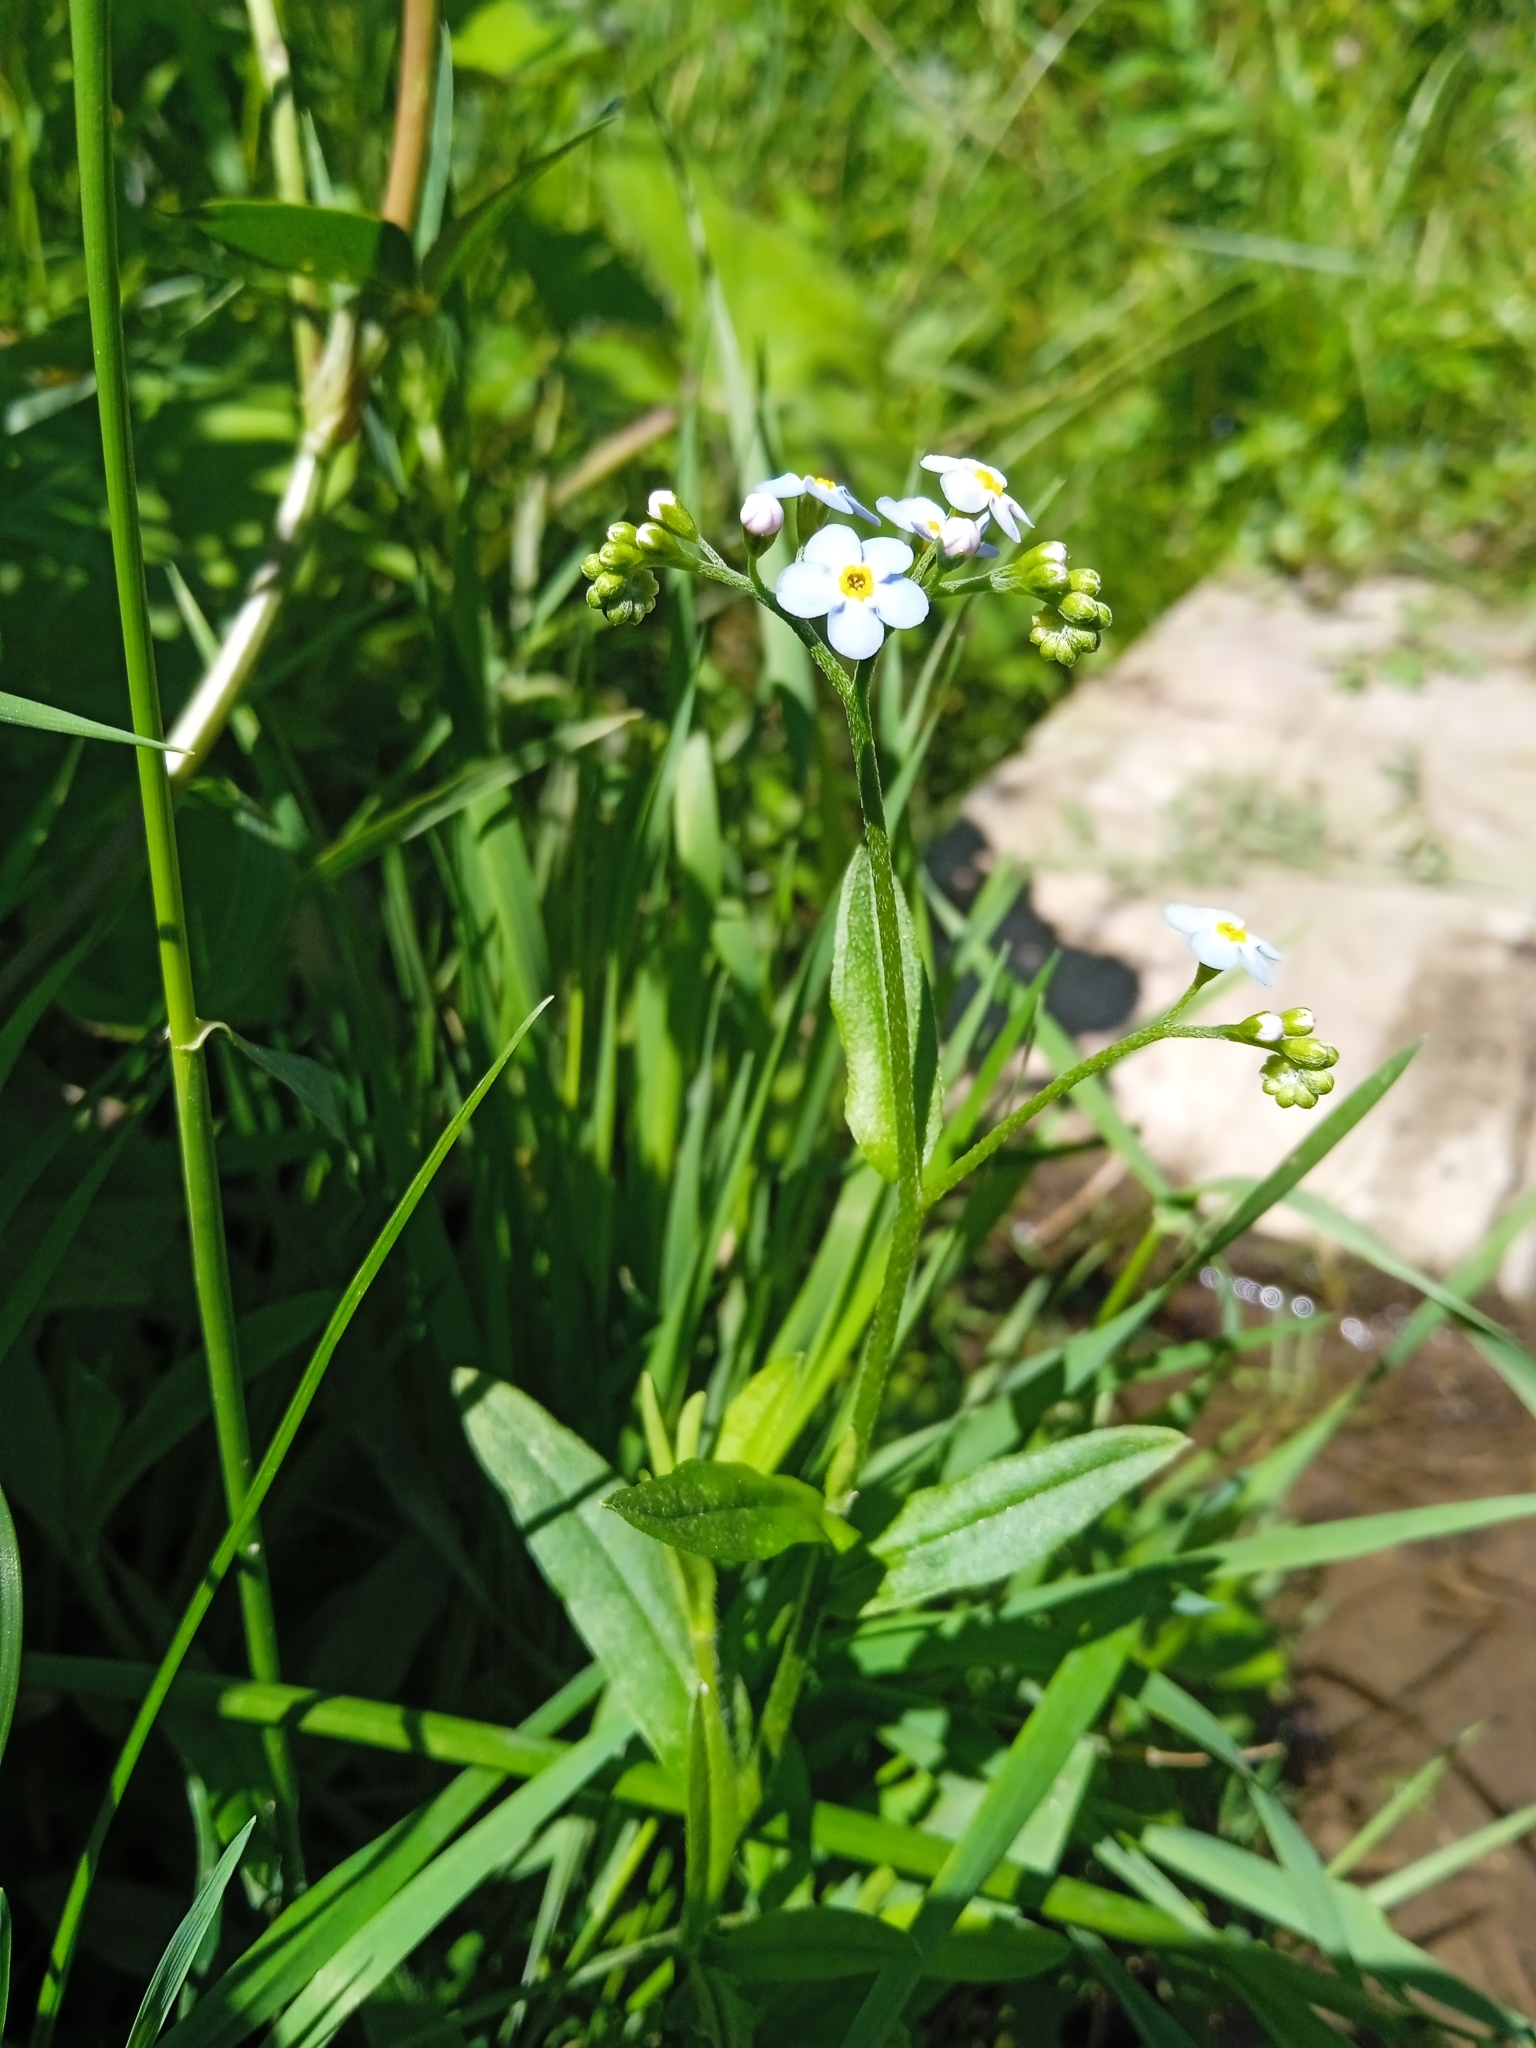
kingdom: Plantae
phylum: Tracheophyta
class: Magnoliopsida
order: Boraginales
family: Boraginaceae
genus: Myosotis
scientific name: Myosotis scorpioides
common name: Water forget-me-not
